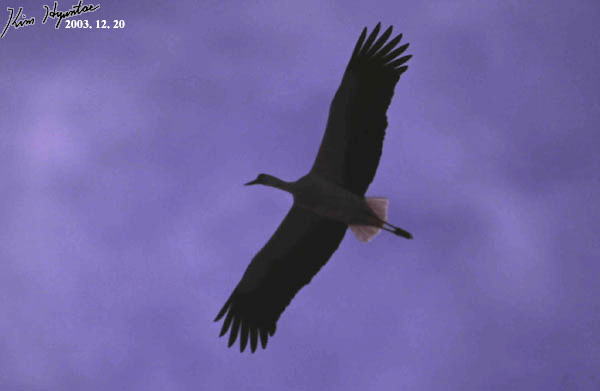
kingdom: Animalia
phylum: Chordata
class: Aves
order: Ciconiiformes
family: Ciconiidae
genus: Ciconia
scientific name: Ciconia boyciana
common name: Oriental stork
